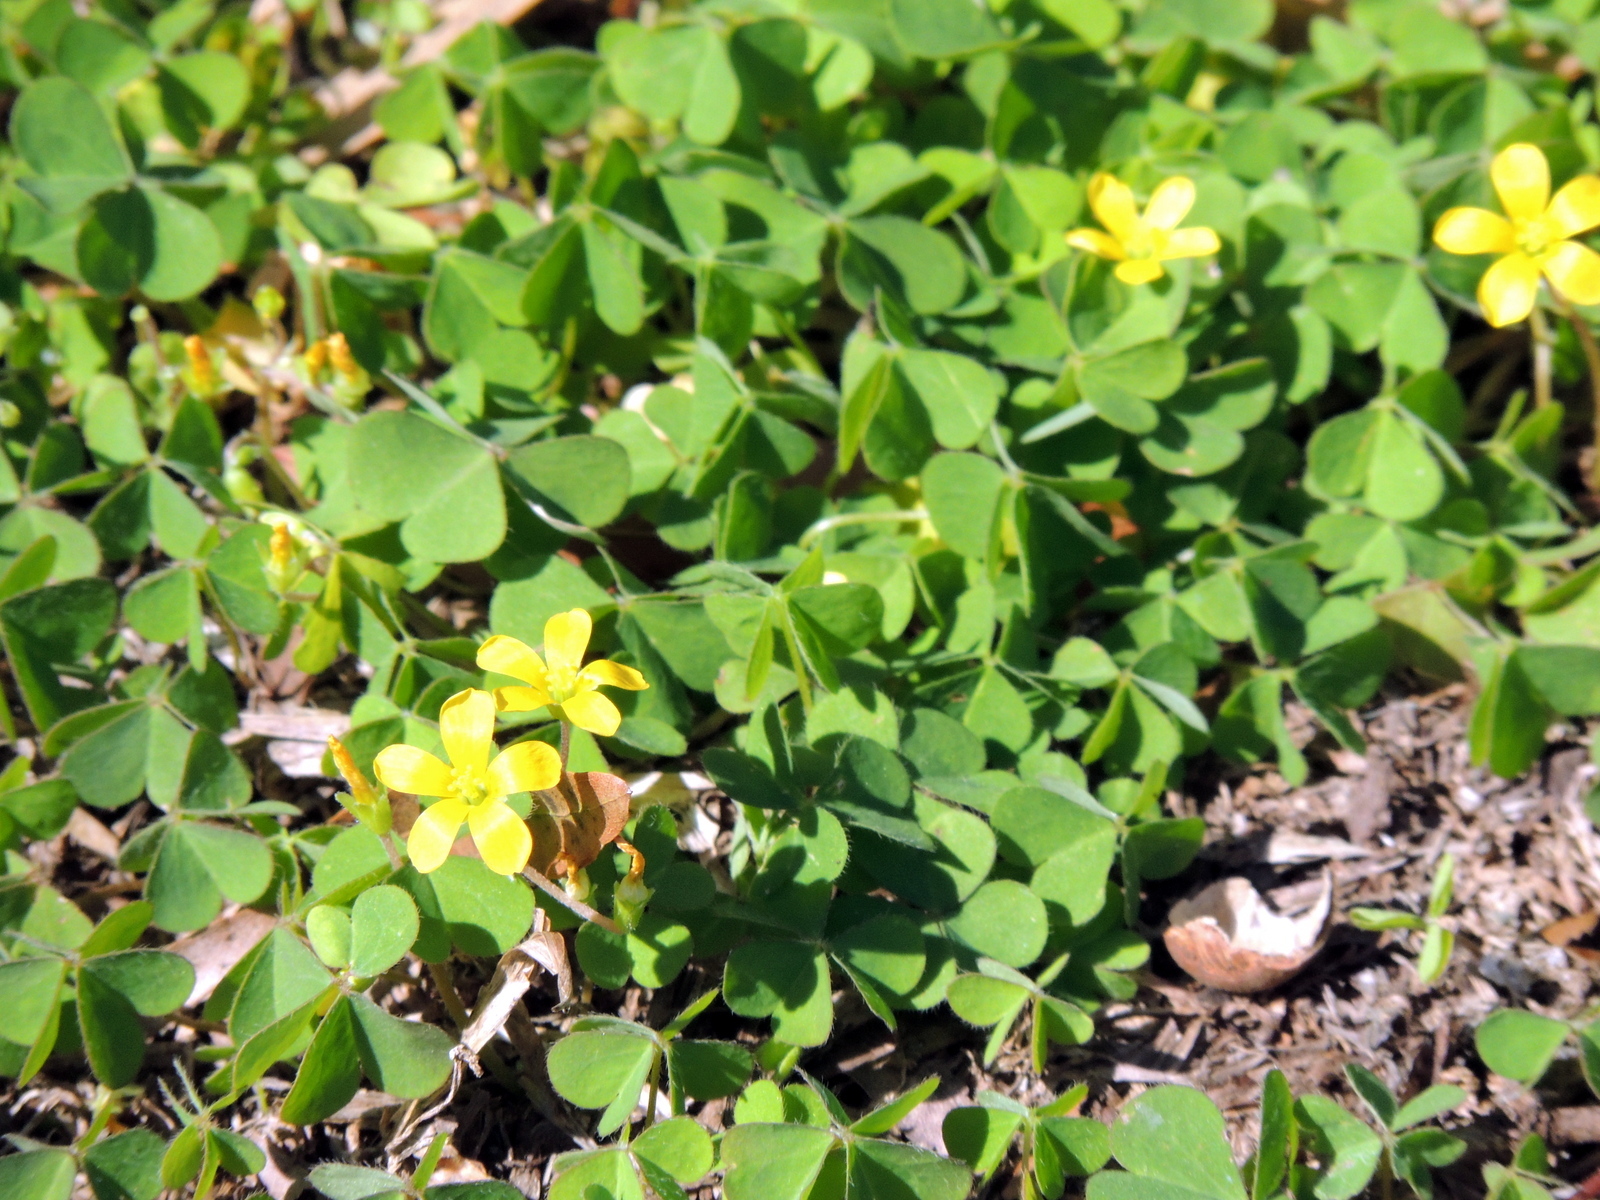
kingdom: Plantae
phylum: Tracheophyta
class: Magnoliopsida
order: Oxalidales
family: Oxalidaceae
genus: Oxalis
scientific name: Oxalis corniculata
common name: Procumbent yellow-sorrel
